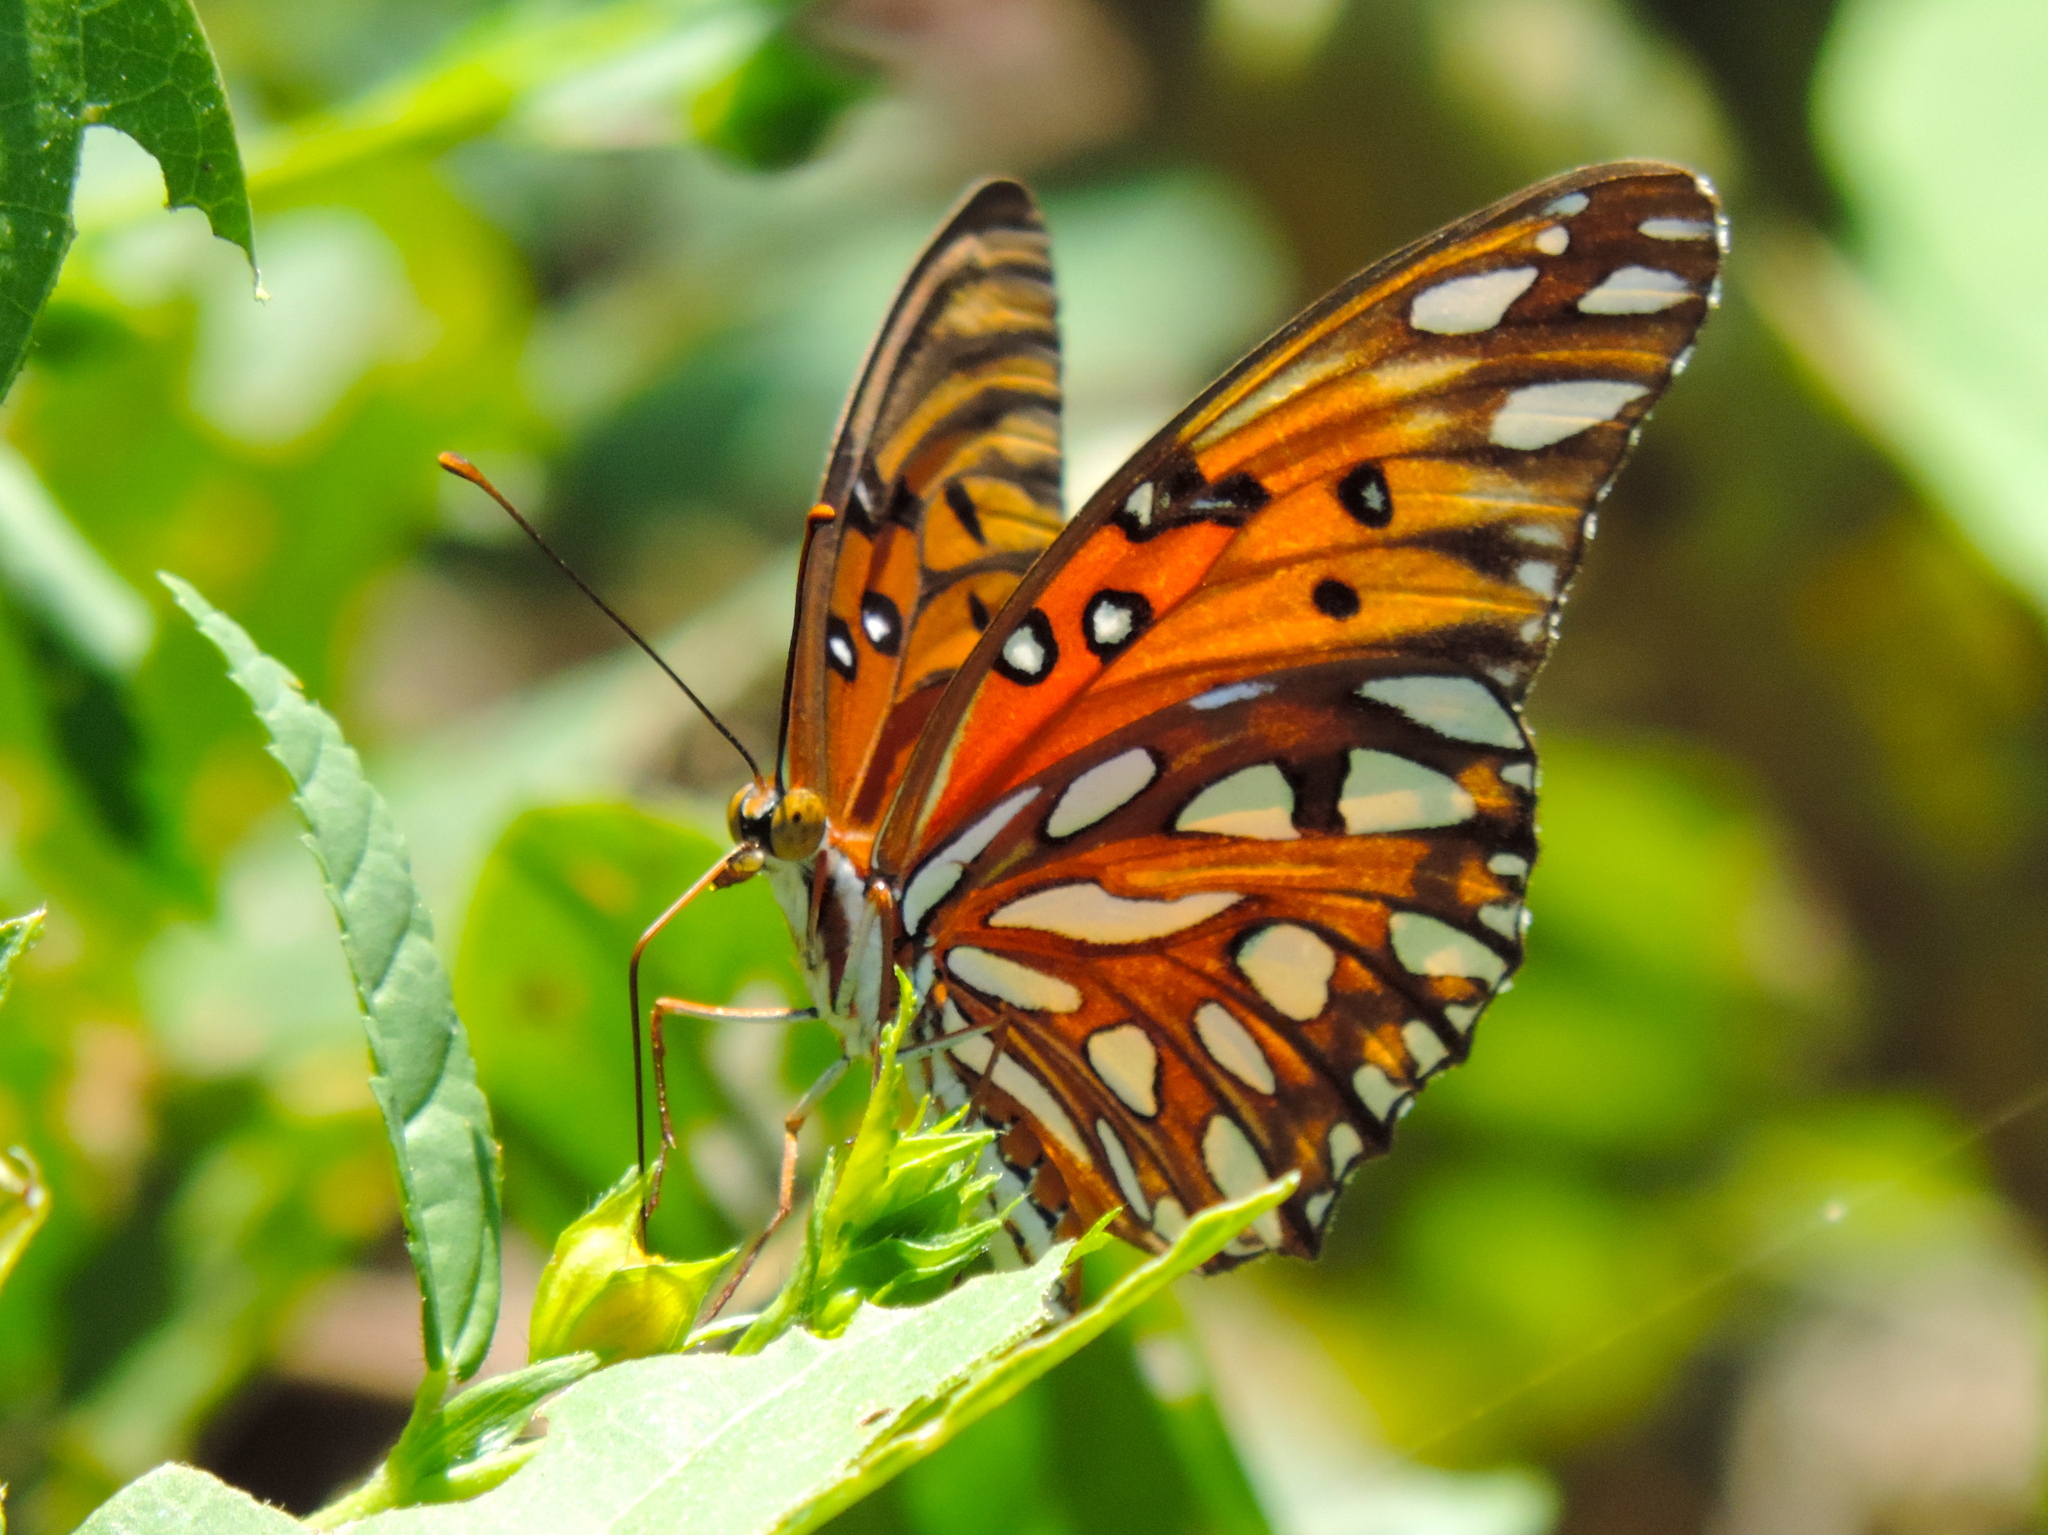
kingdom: Animalia
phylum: Arthropoda
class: Insecta
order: Lepidoptera
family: Nymphalidae
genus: Dione
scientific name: Dione vanillae
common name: Gulf fritillary
